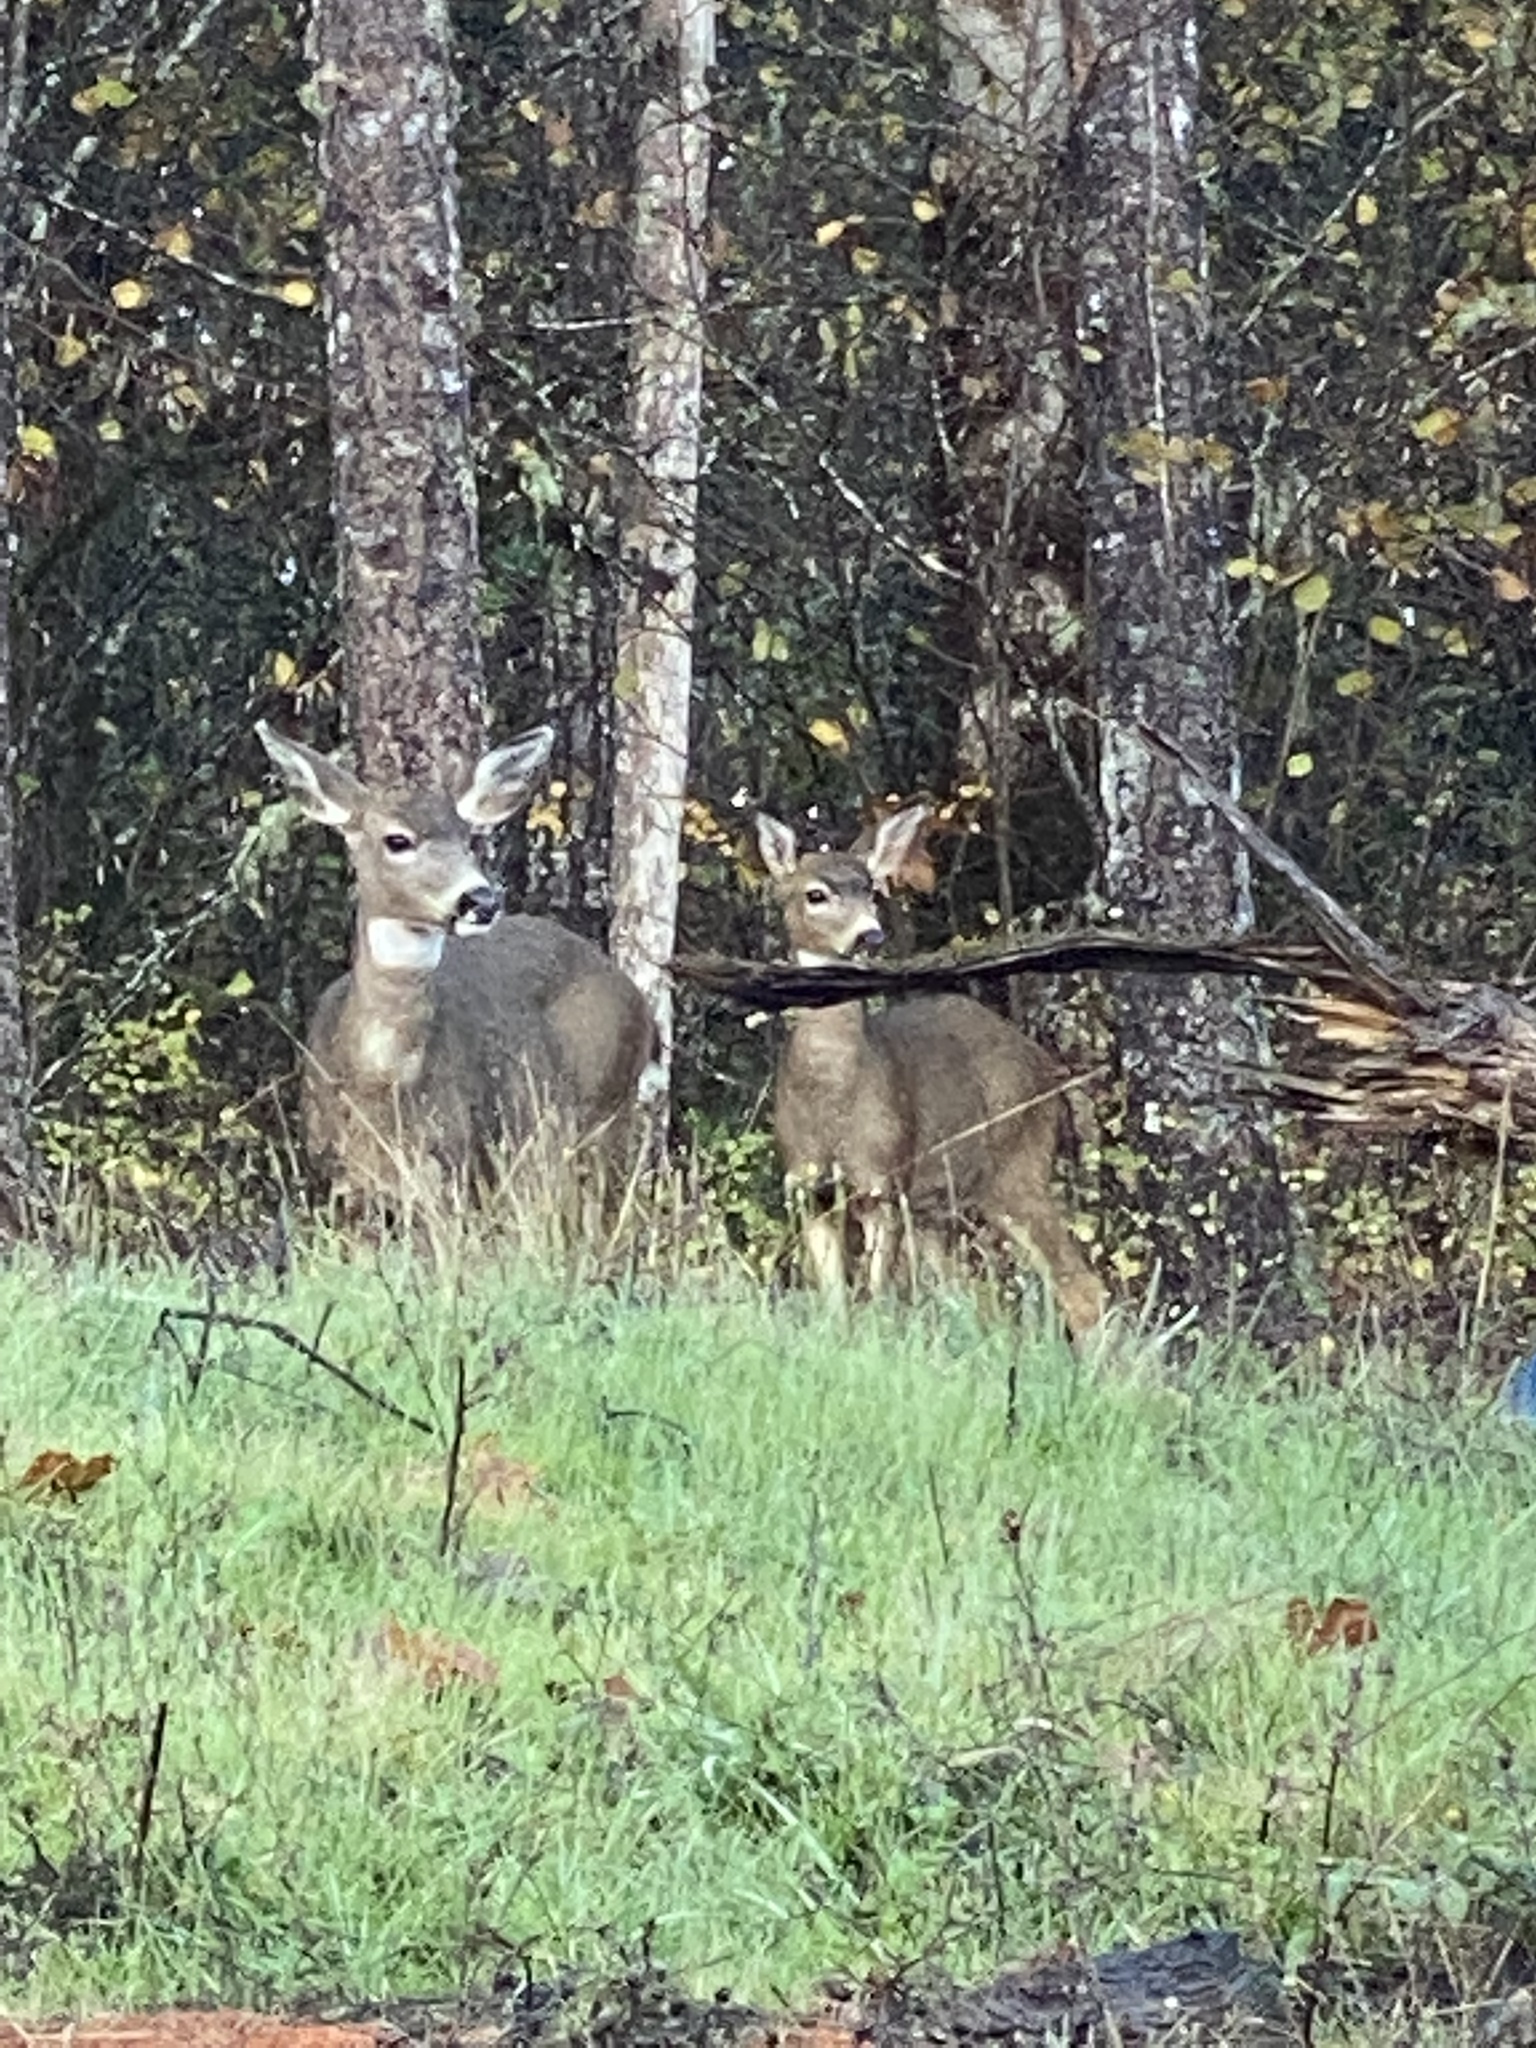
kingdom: Animalia
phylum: Chordata
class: Mammalia
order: Artiodactyla
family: Cervidae
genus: Odocoileus
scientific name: Odocoileus hemionus
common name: Mule deer
